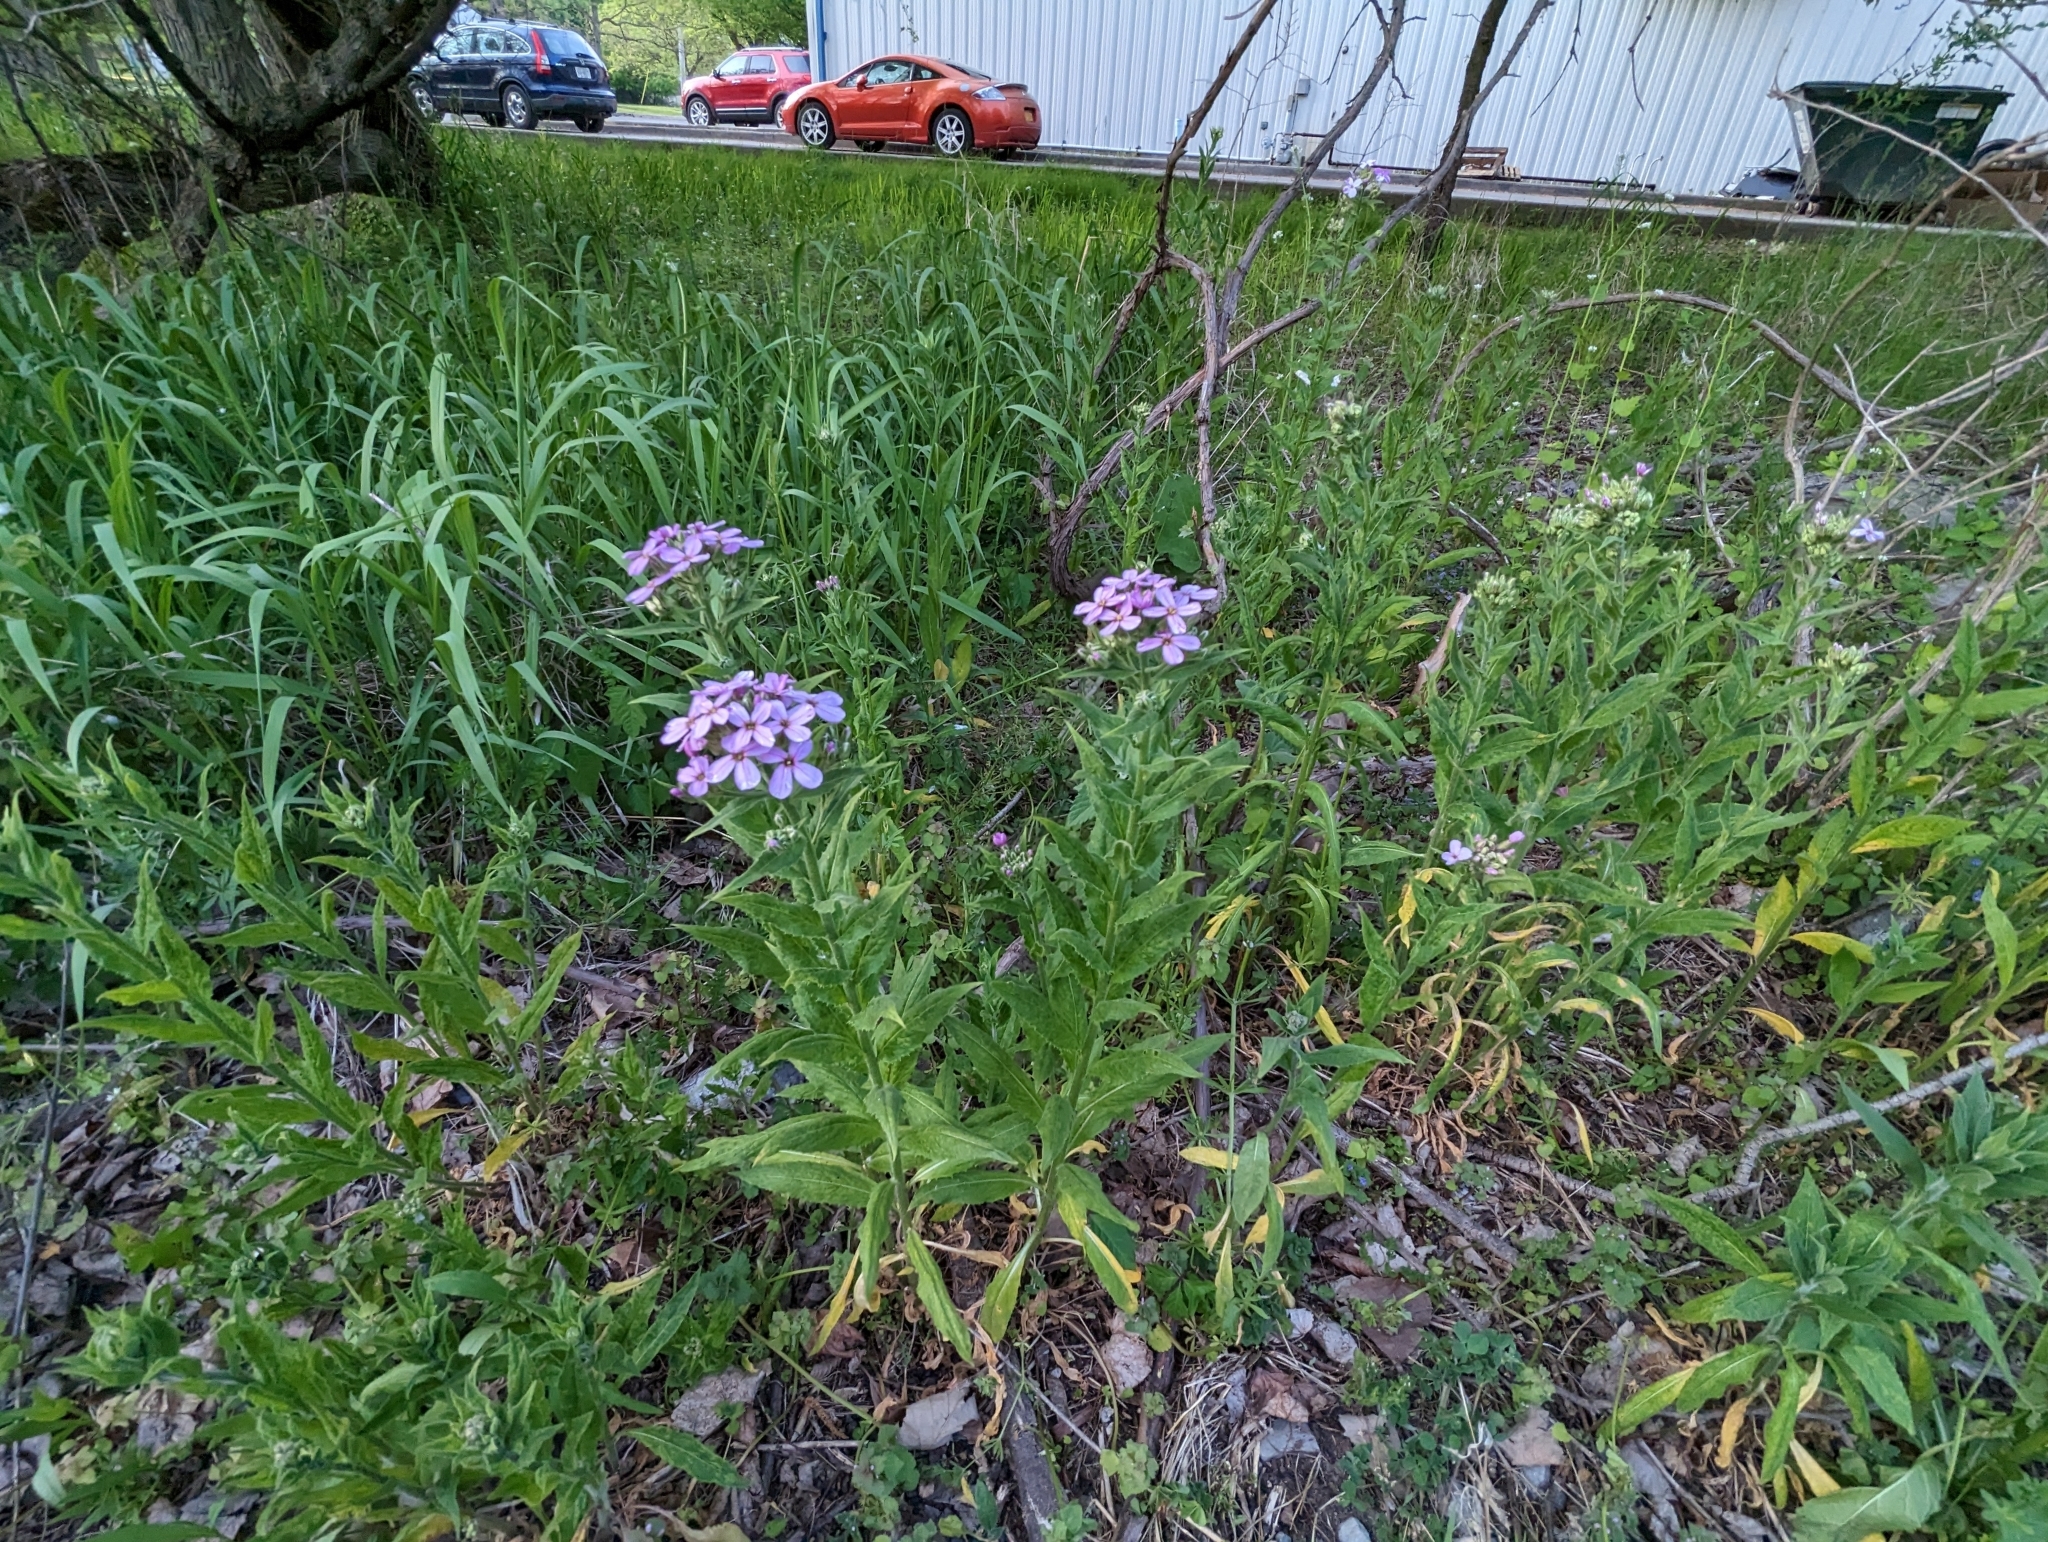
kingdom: Plantae
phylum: Tracheophyta
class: Magnoliopsida
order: Brassicales
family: Brassicaceae
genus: Hesperis
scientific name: Hesperis matronalis
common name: Dame's-violet
